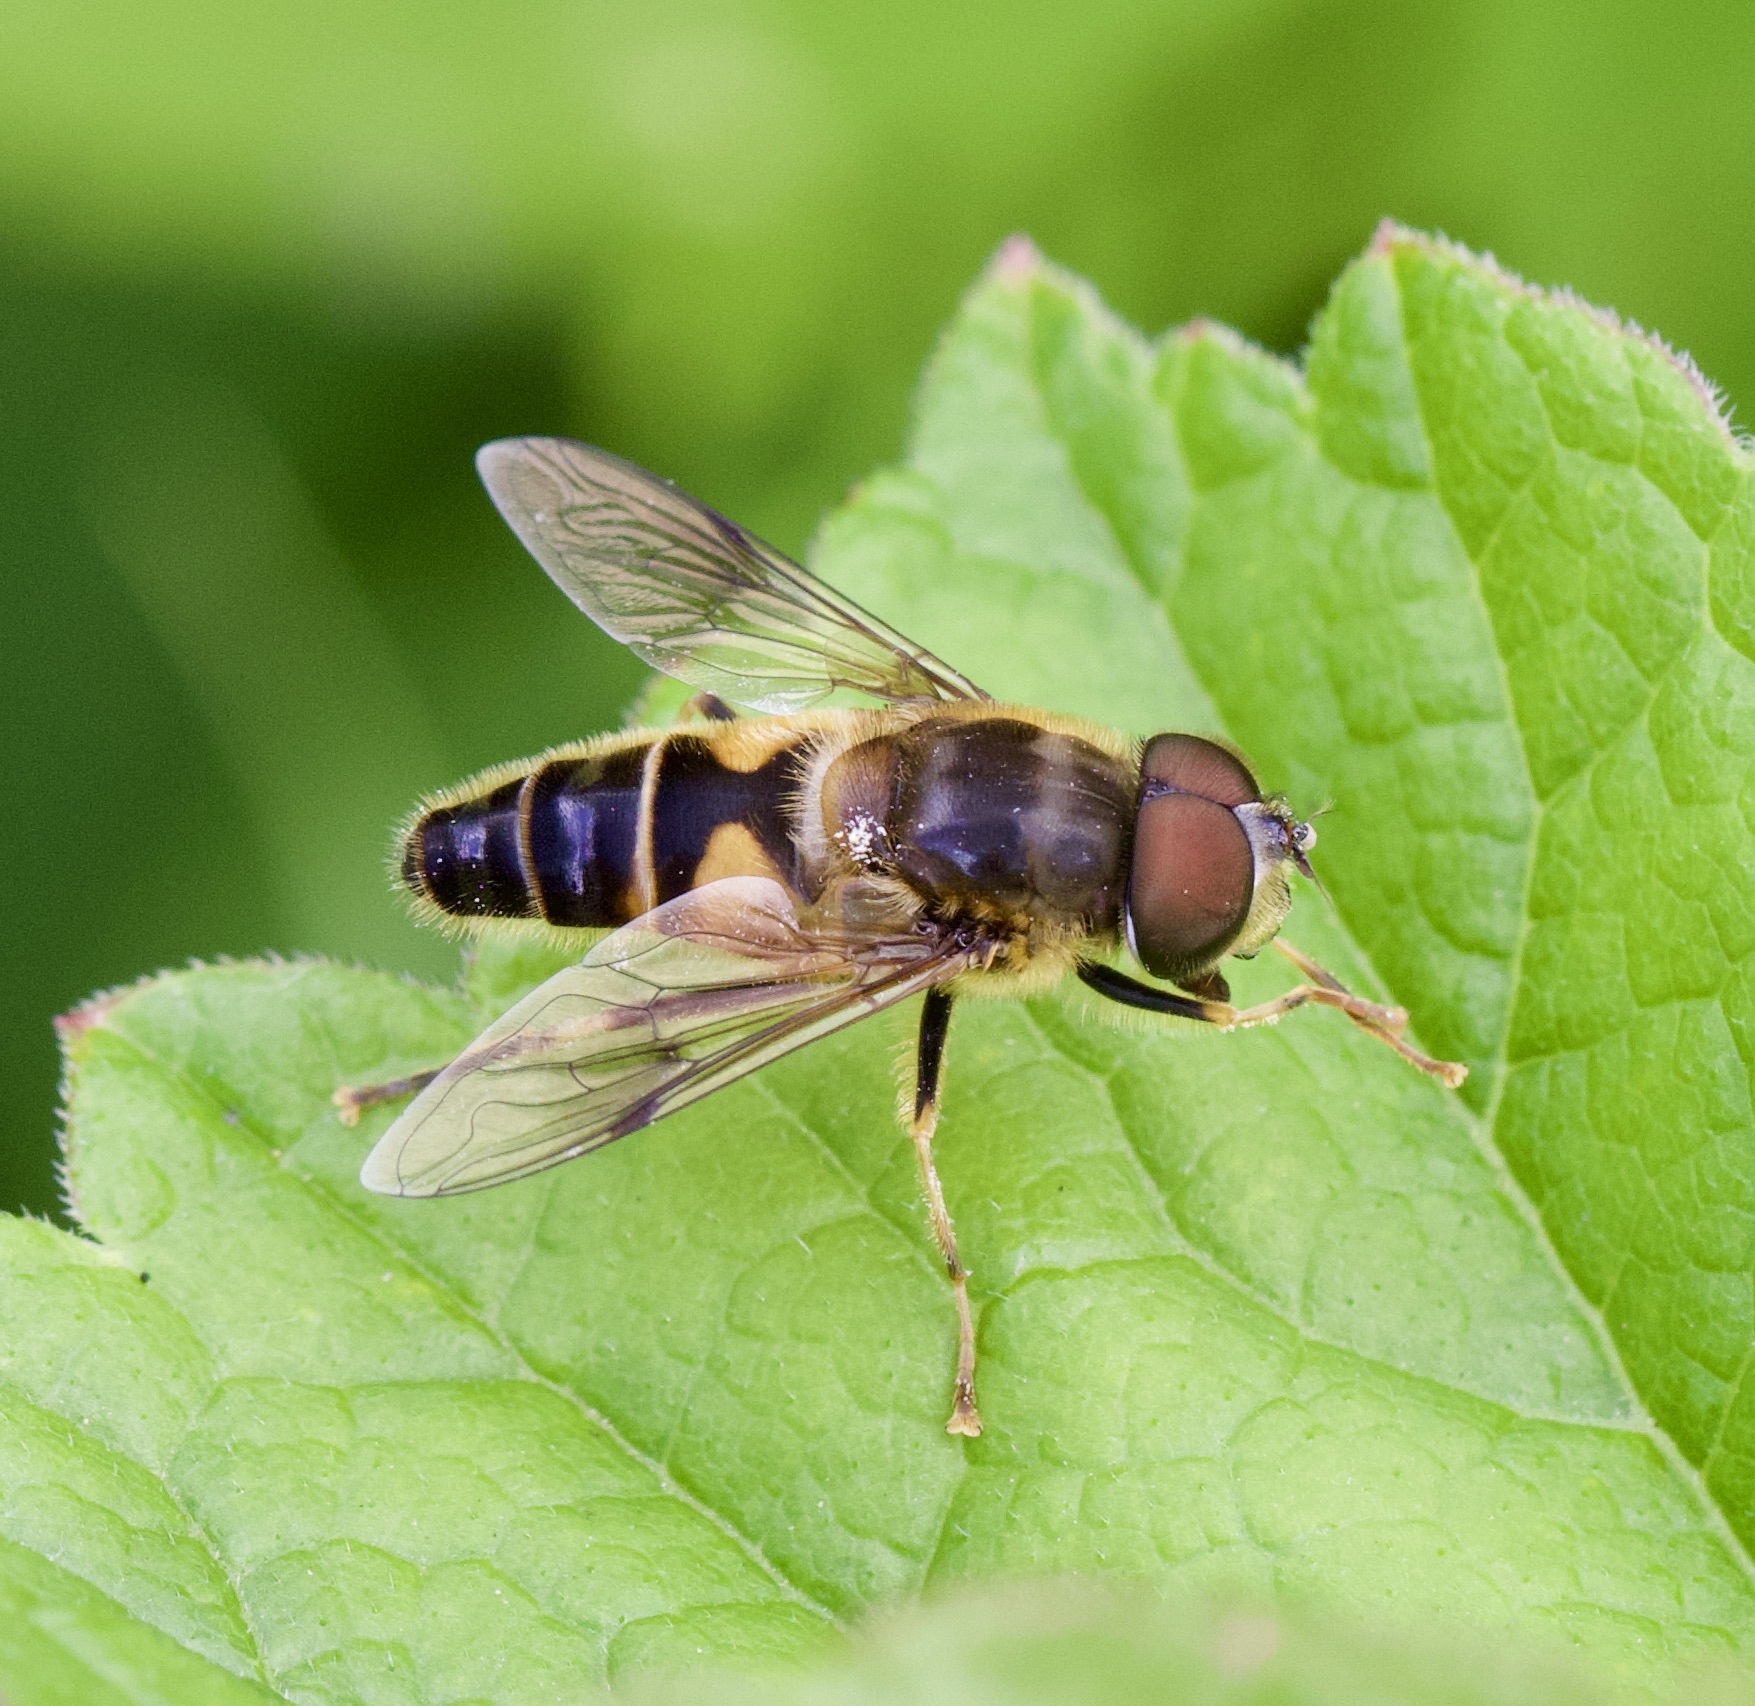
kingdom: Animalia
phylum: Arthropoda
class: Insecta
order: Diptera
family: Syrphidae
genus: Eristalis
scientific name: Eristalis pertinax
